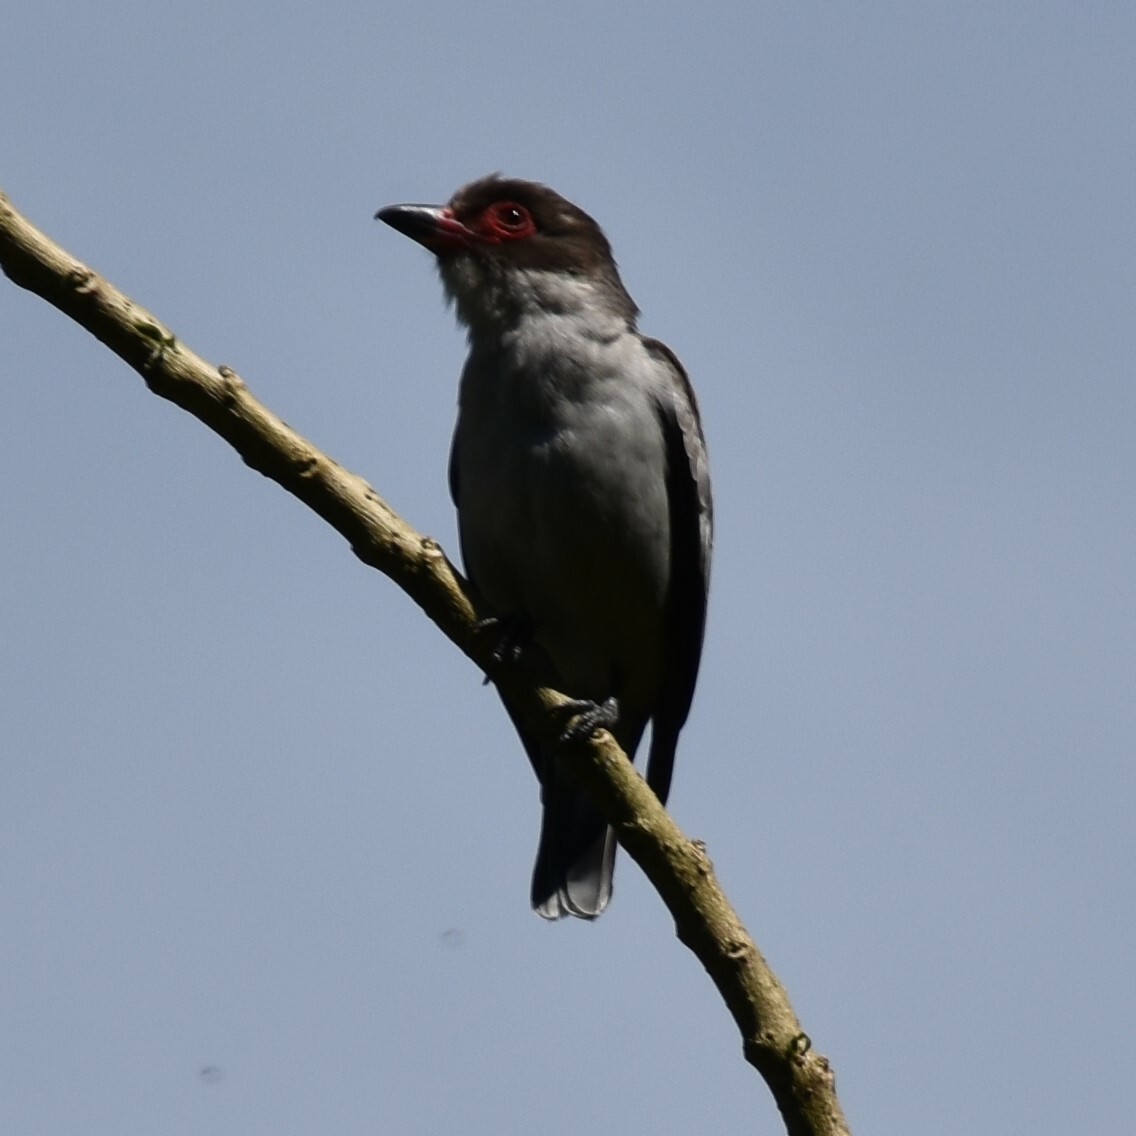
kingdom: Animalia
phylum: Chordata
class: Aves
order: Passeriformes
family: Cotingidae
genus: Tityra
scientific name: Tityra semifasciata
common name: Masked tityra
